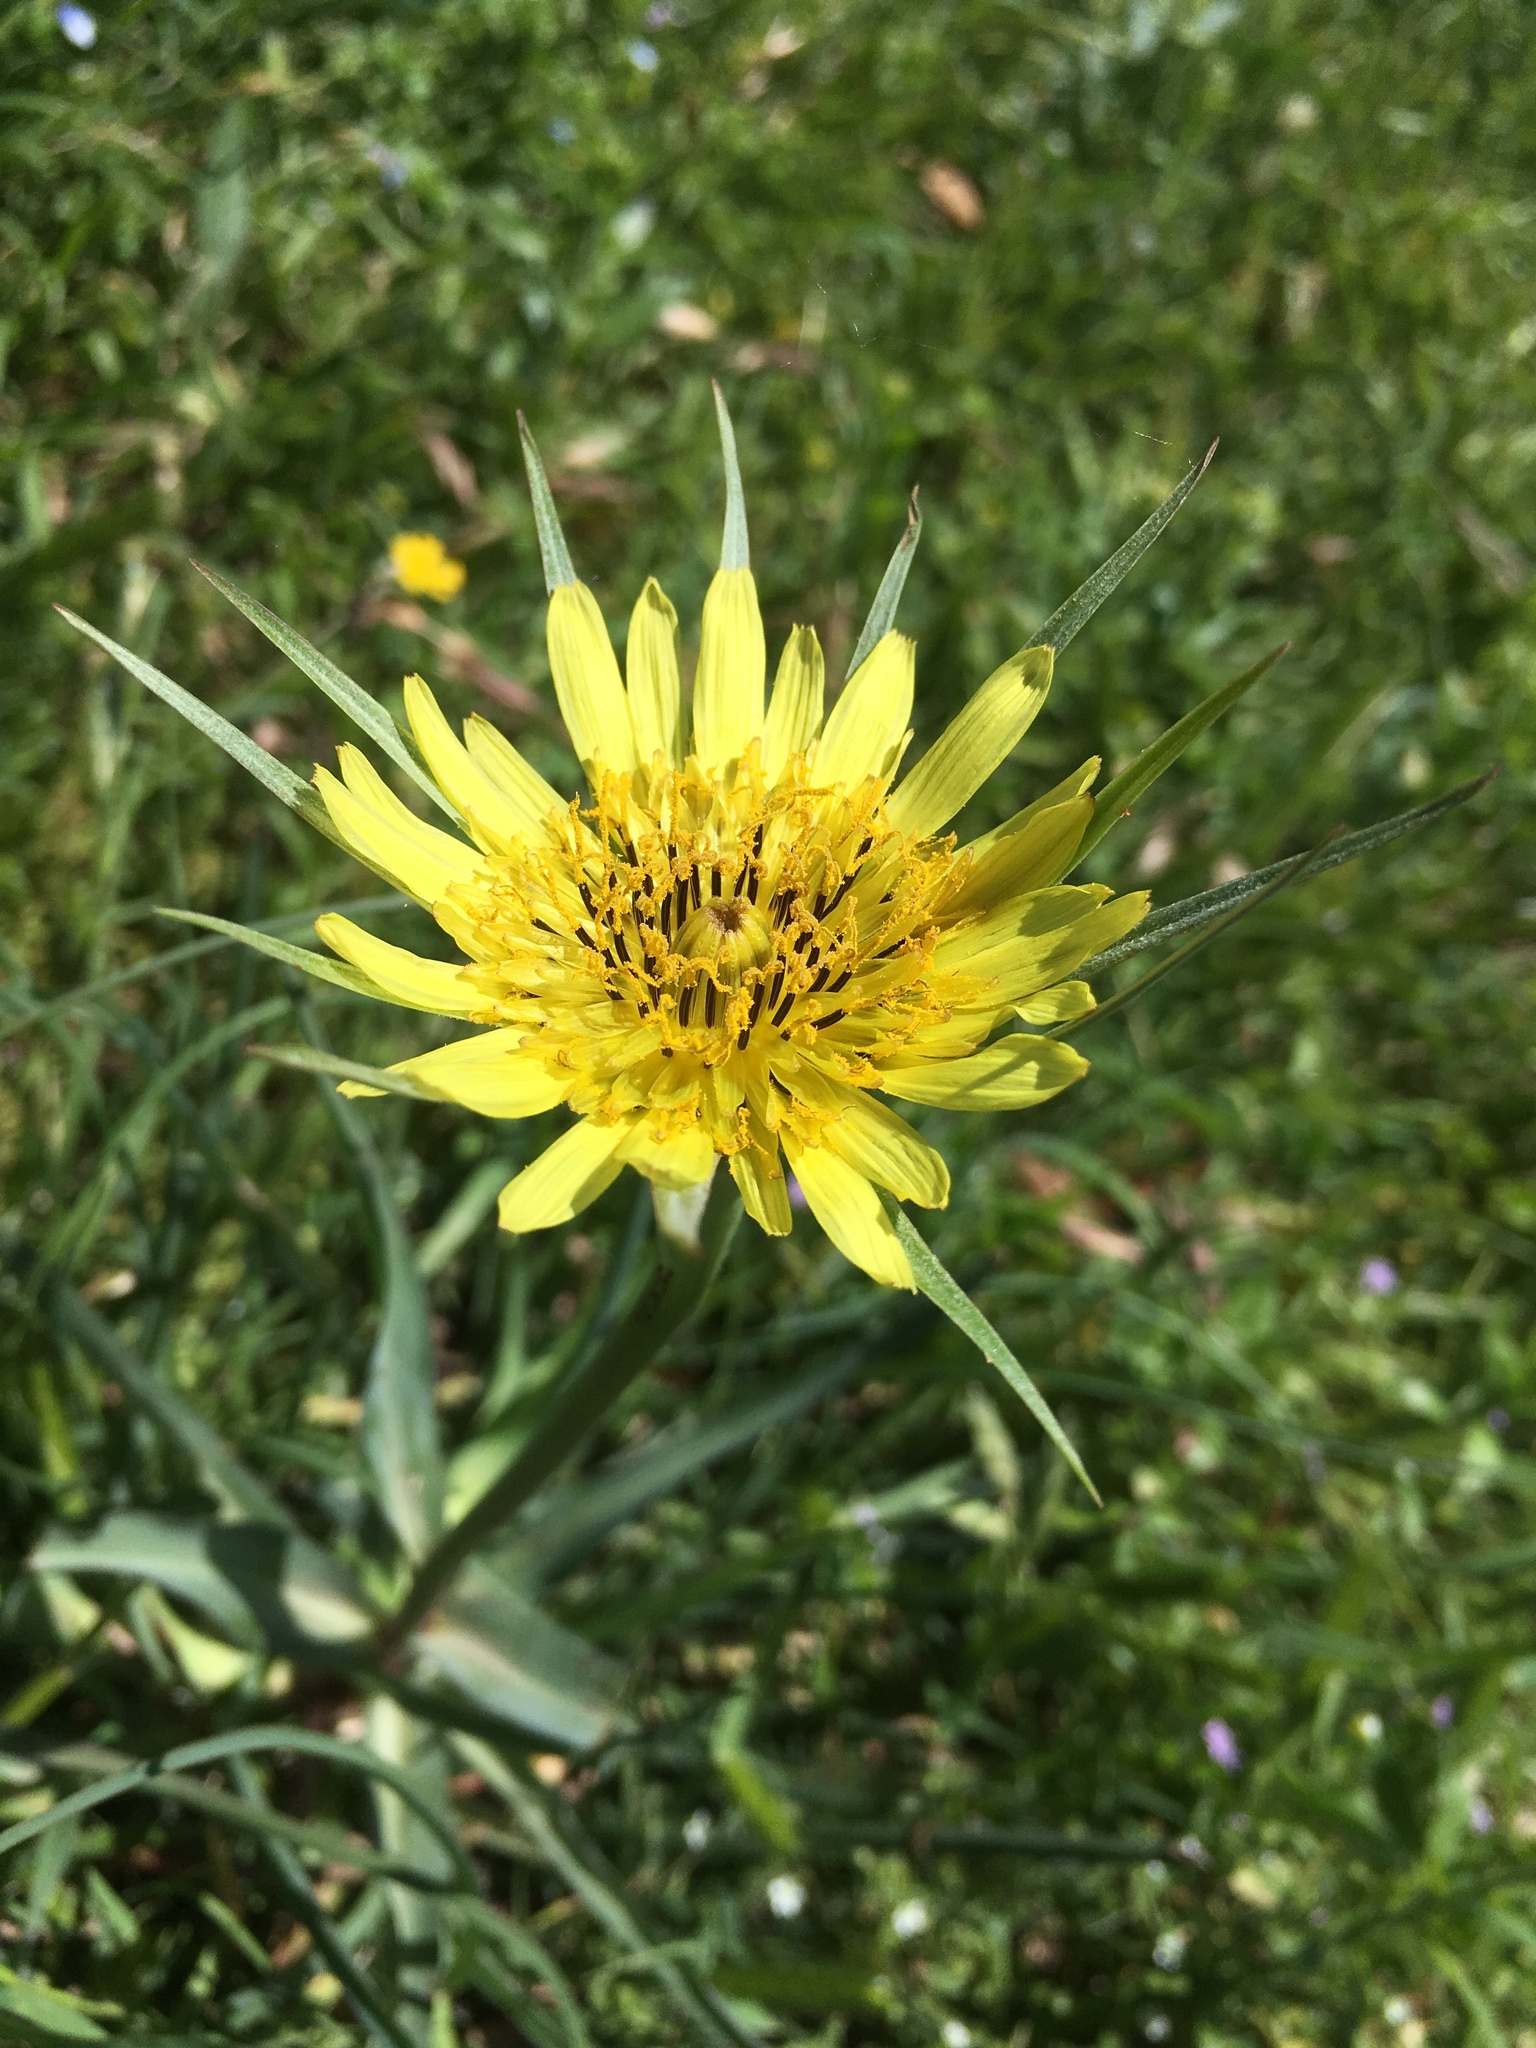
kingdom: Plantae
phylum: Tracheophyta
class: Magnoliopsida
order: Asterales
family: Asteraceae
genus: Tragopogon
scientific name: Tragopogon dubius
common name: Yellow salsify
